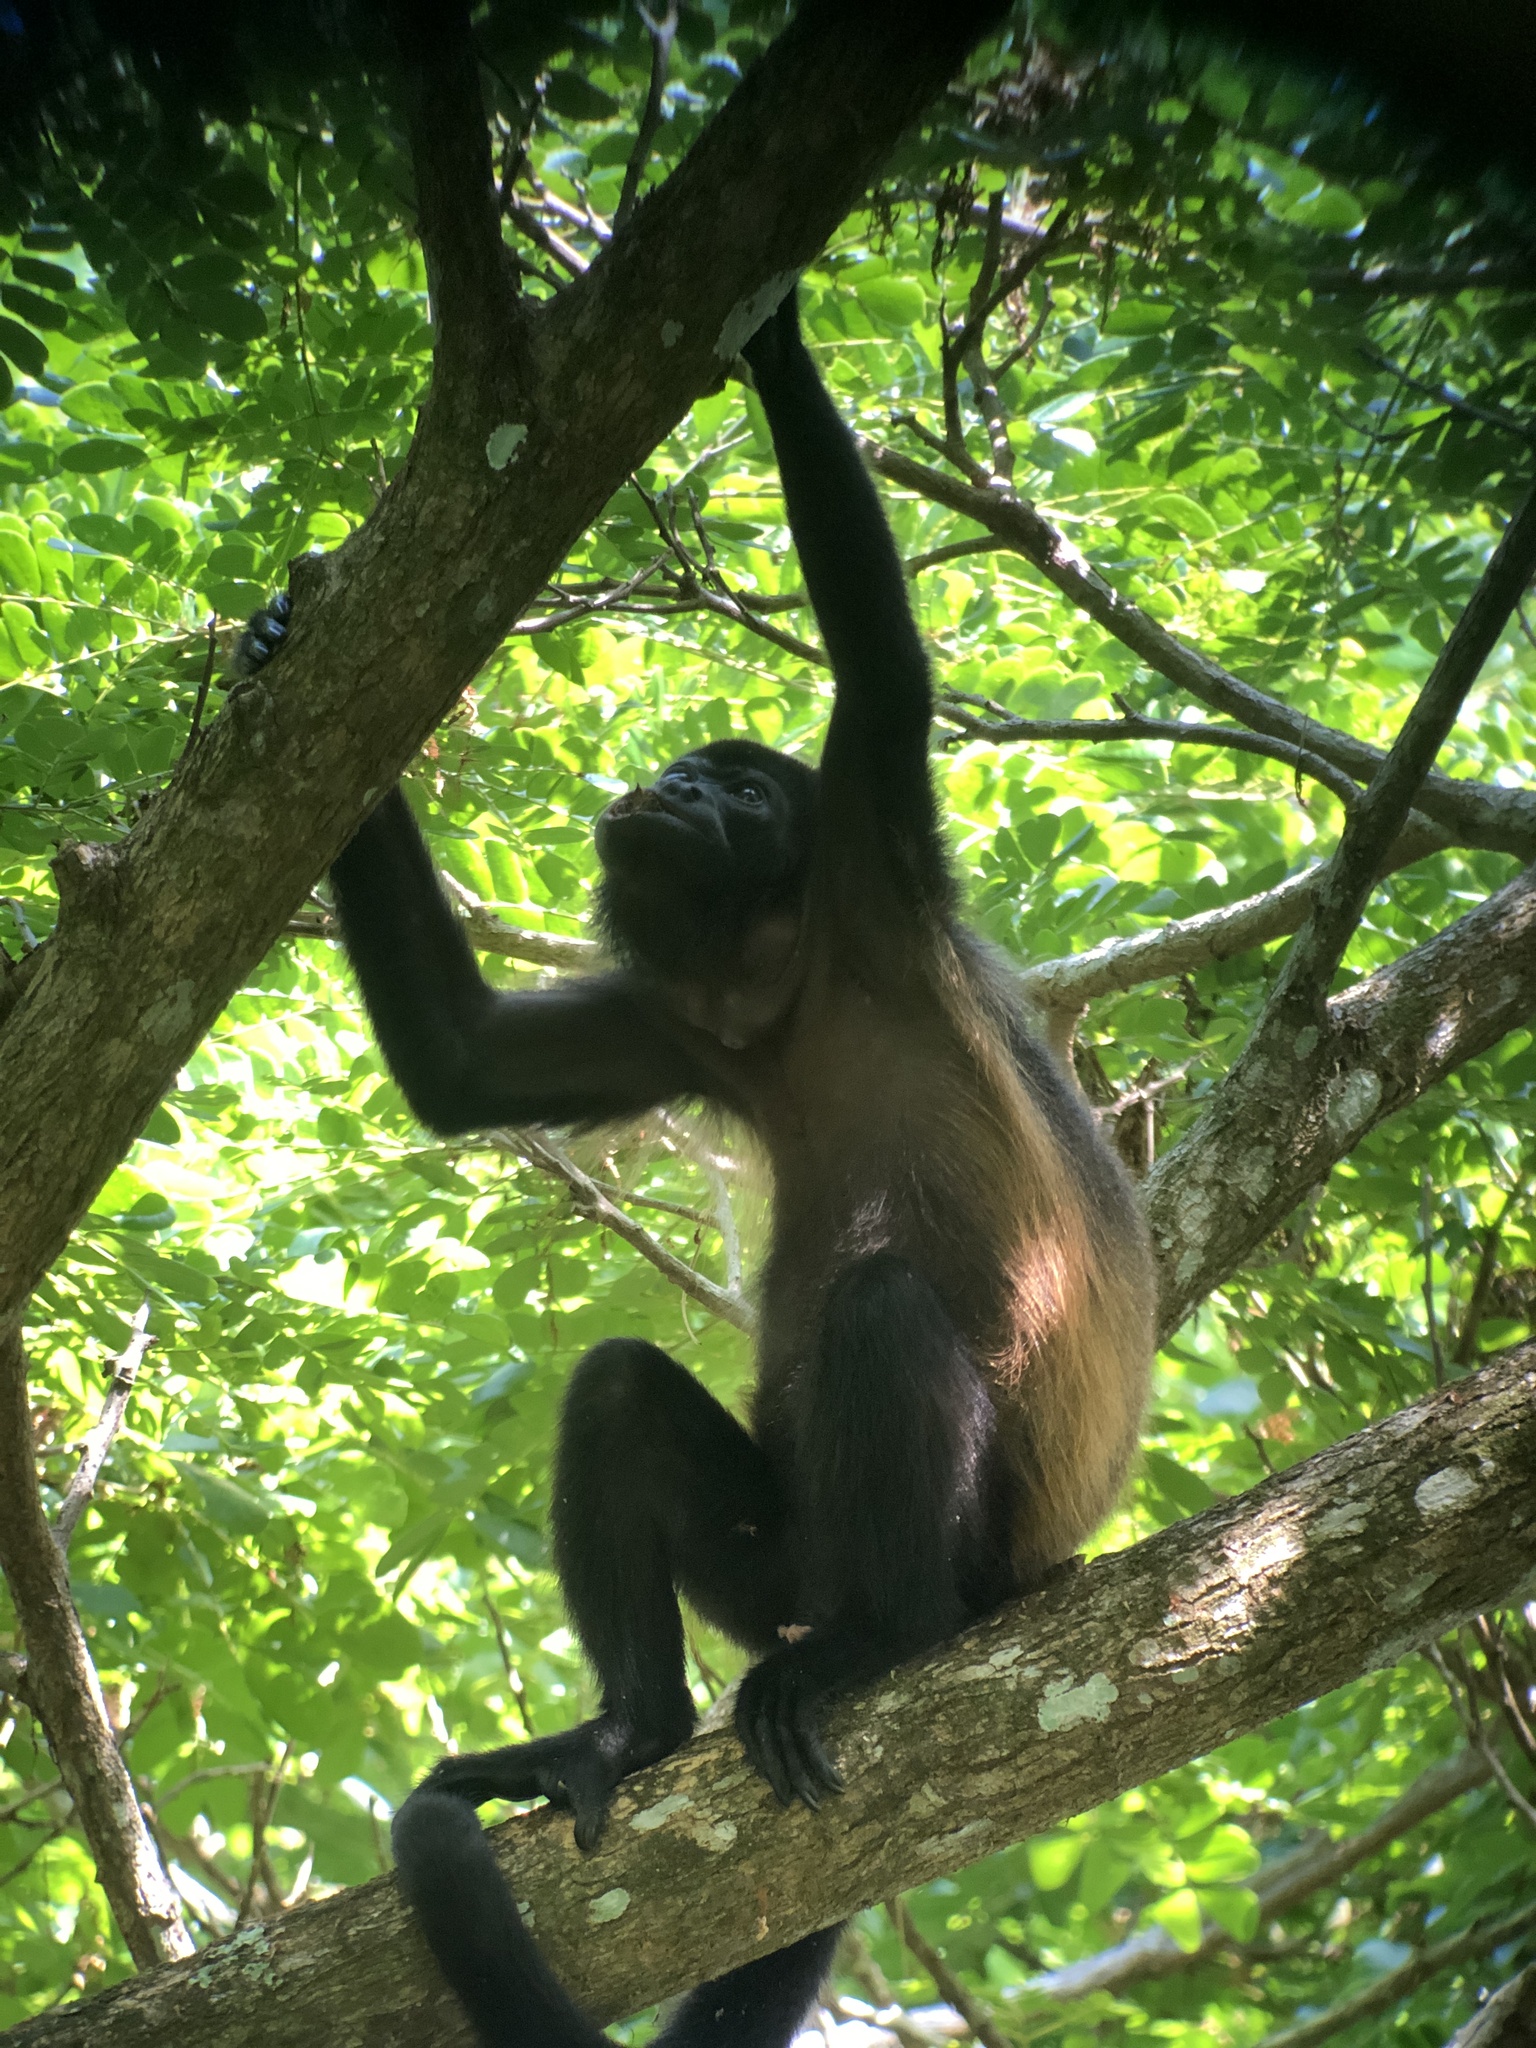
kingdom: Animalia
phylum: Chordata
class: Mammalia
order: Primates
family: Atelidae
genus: Alouatta
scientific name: Alouatta palliata
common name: Mantled howler
